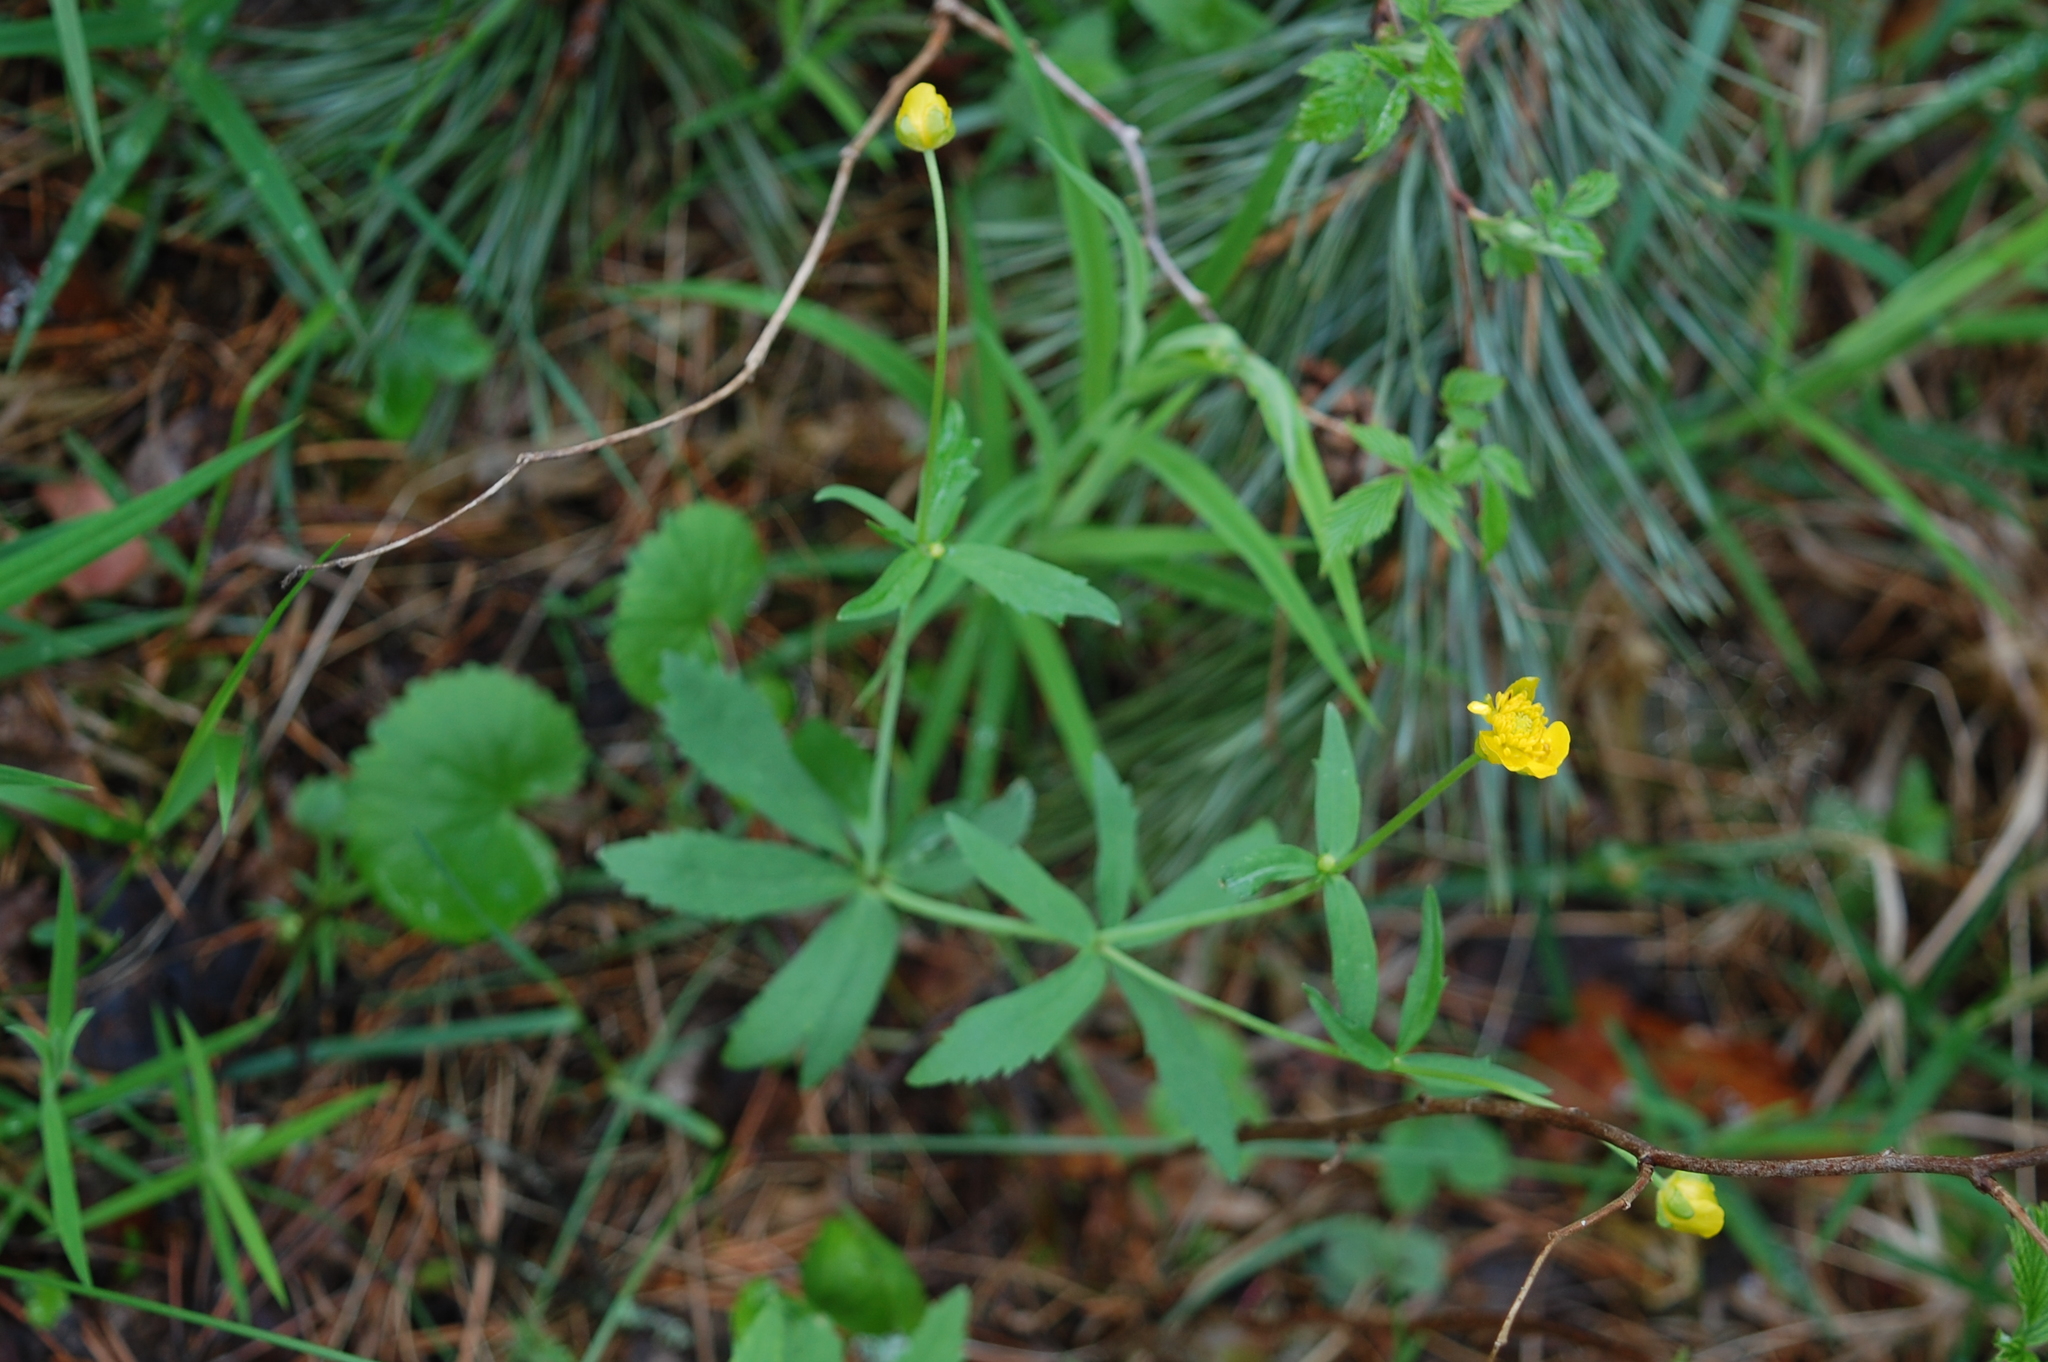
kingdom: Plantae
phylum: Tracheophyta
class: Magnoliopsida
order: Ranunculales
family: Ranunculaceae
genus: Ranunculus
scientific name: Ranunculus cassubicus
